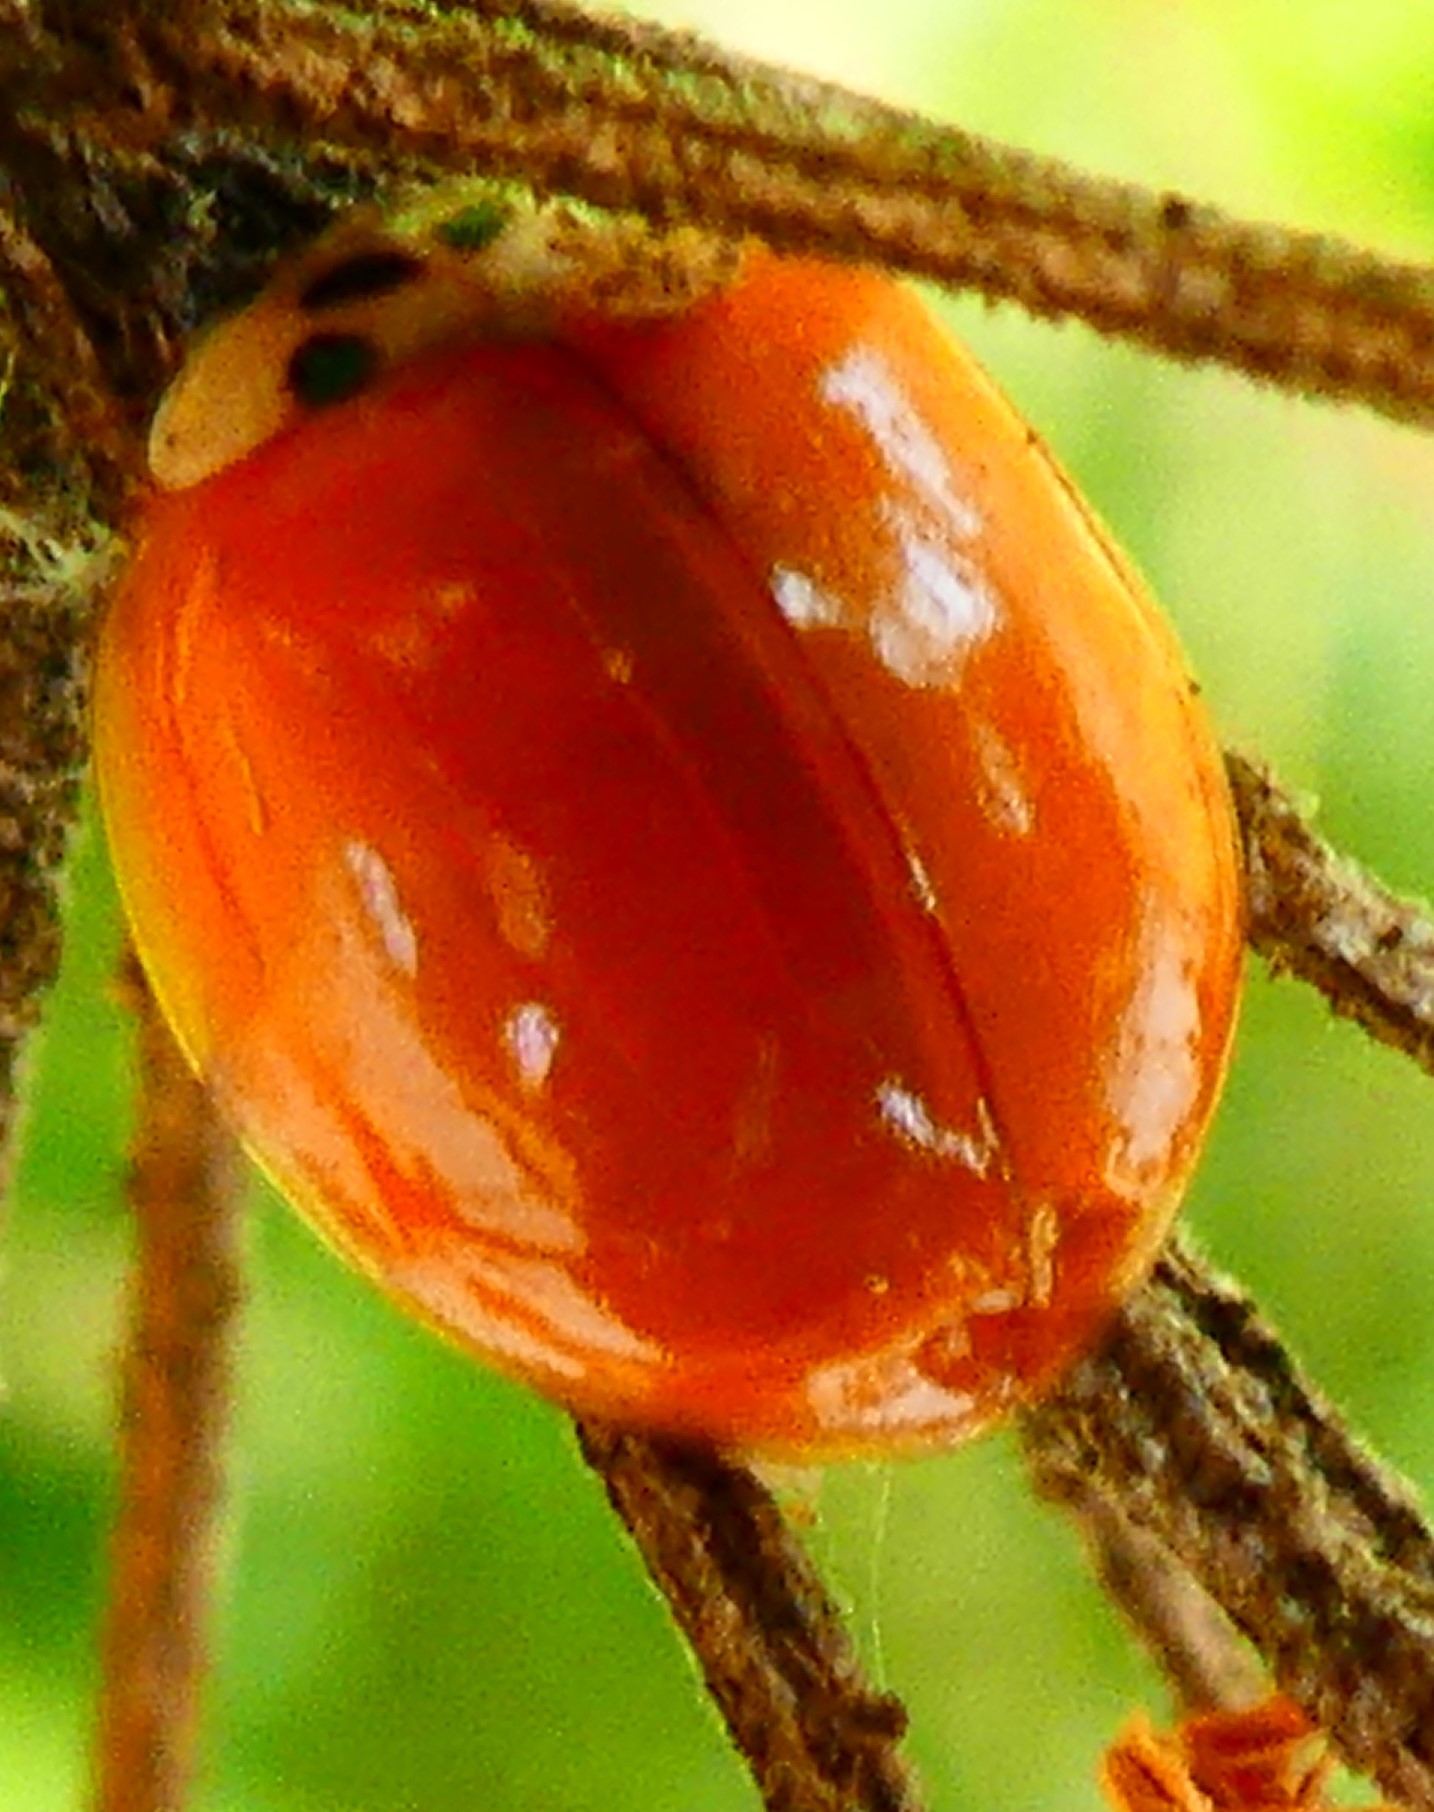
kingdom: Animalia
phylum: Arthropoda
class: Insecta
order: Coleoptera
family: Coccinellidae
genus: Harmonia
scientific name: Harmonia axyridis
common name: Harlequin ladybird
